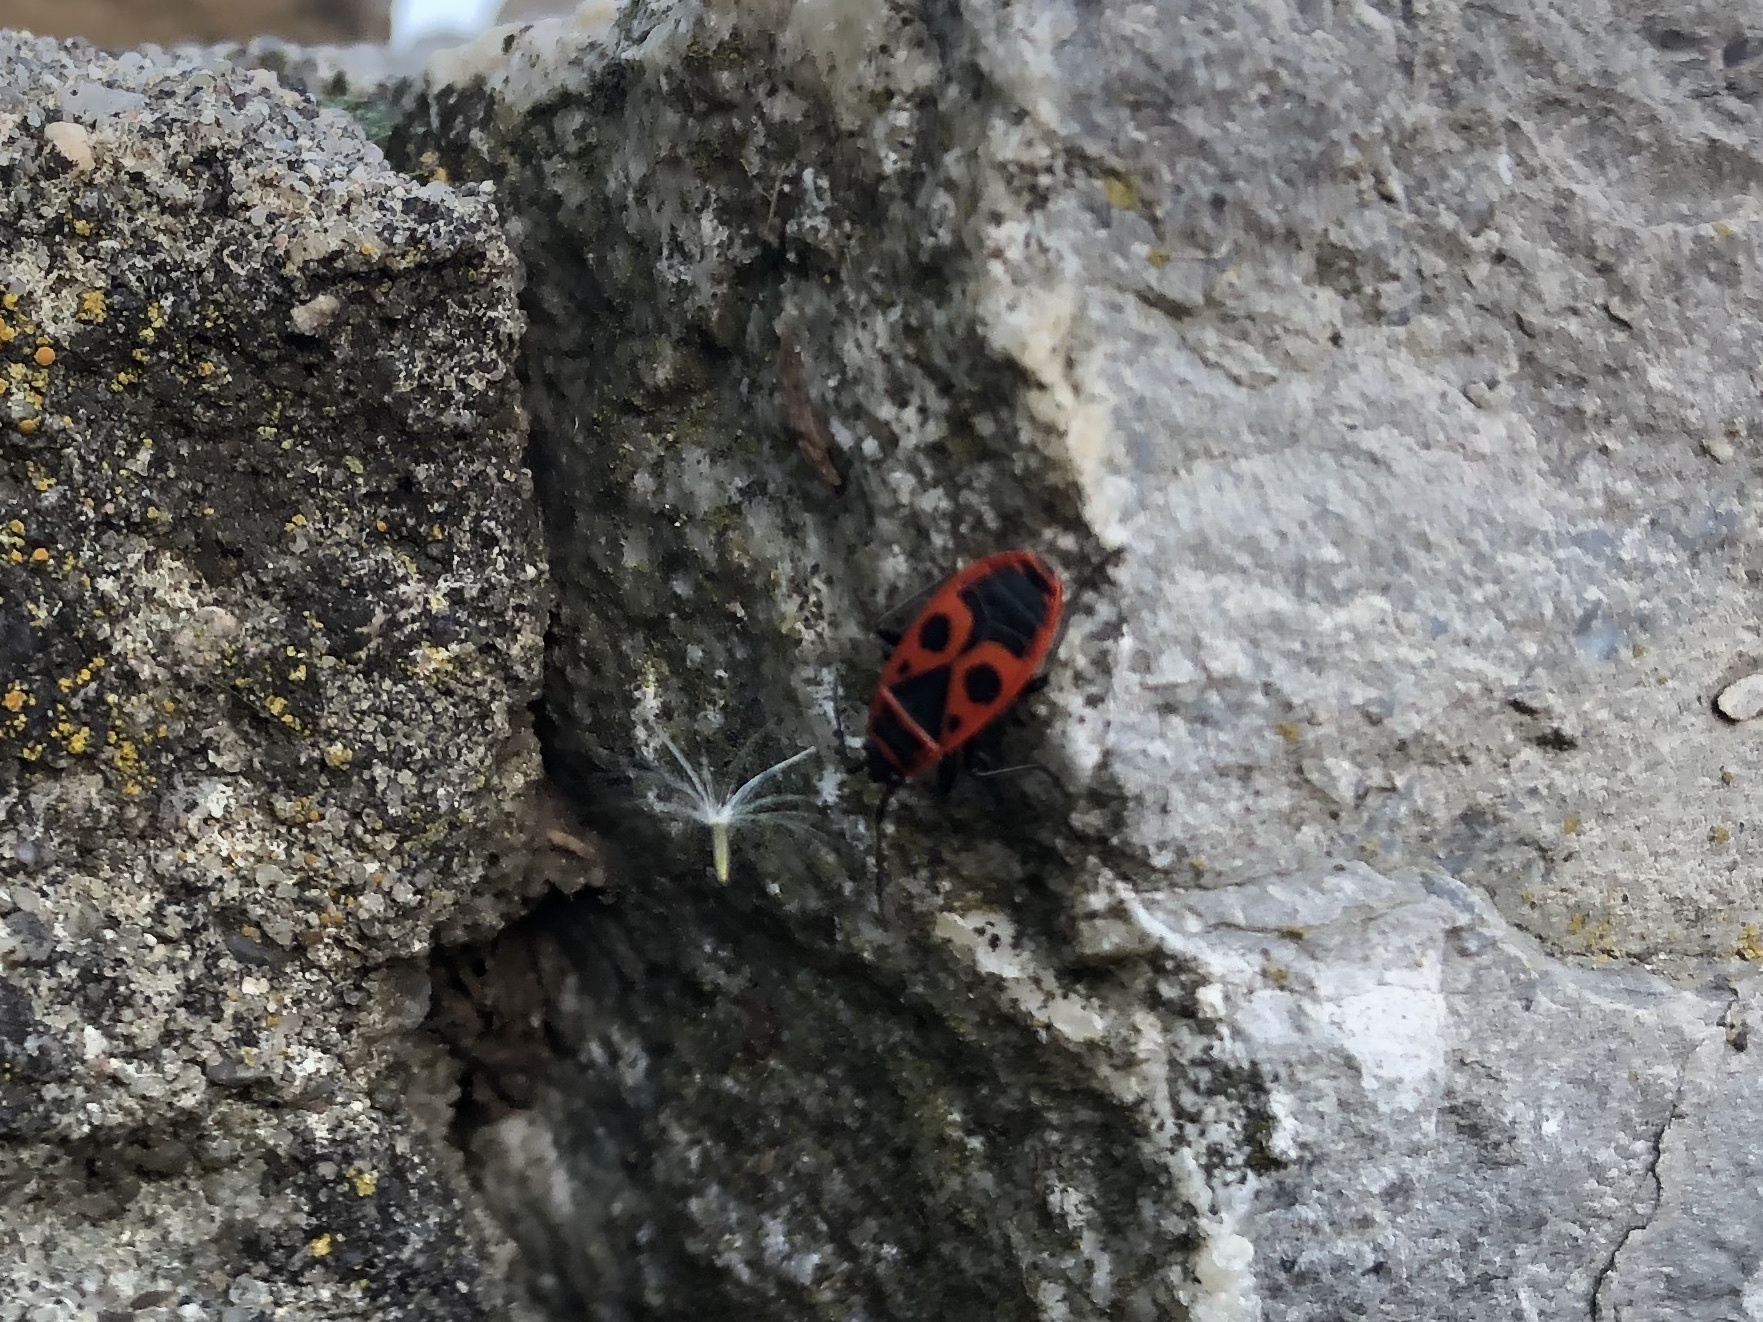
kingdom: Animalia
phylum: Arthropoda
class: Insecta
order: Hemiptera
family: Pyrrhocoridae
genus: Pyrrhocoris
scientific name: Pyrrhocoris apterus
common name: Firebug
